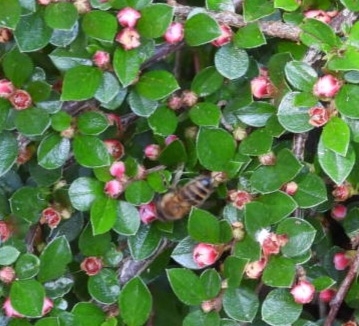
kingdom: Animalia
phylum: Arthropoda
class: Insecta
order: Hymenoptera
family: Apidae
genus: Apis
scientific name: Apis mellifera
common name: Honey bee
